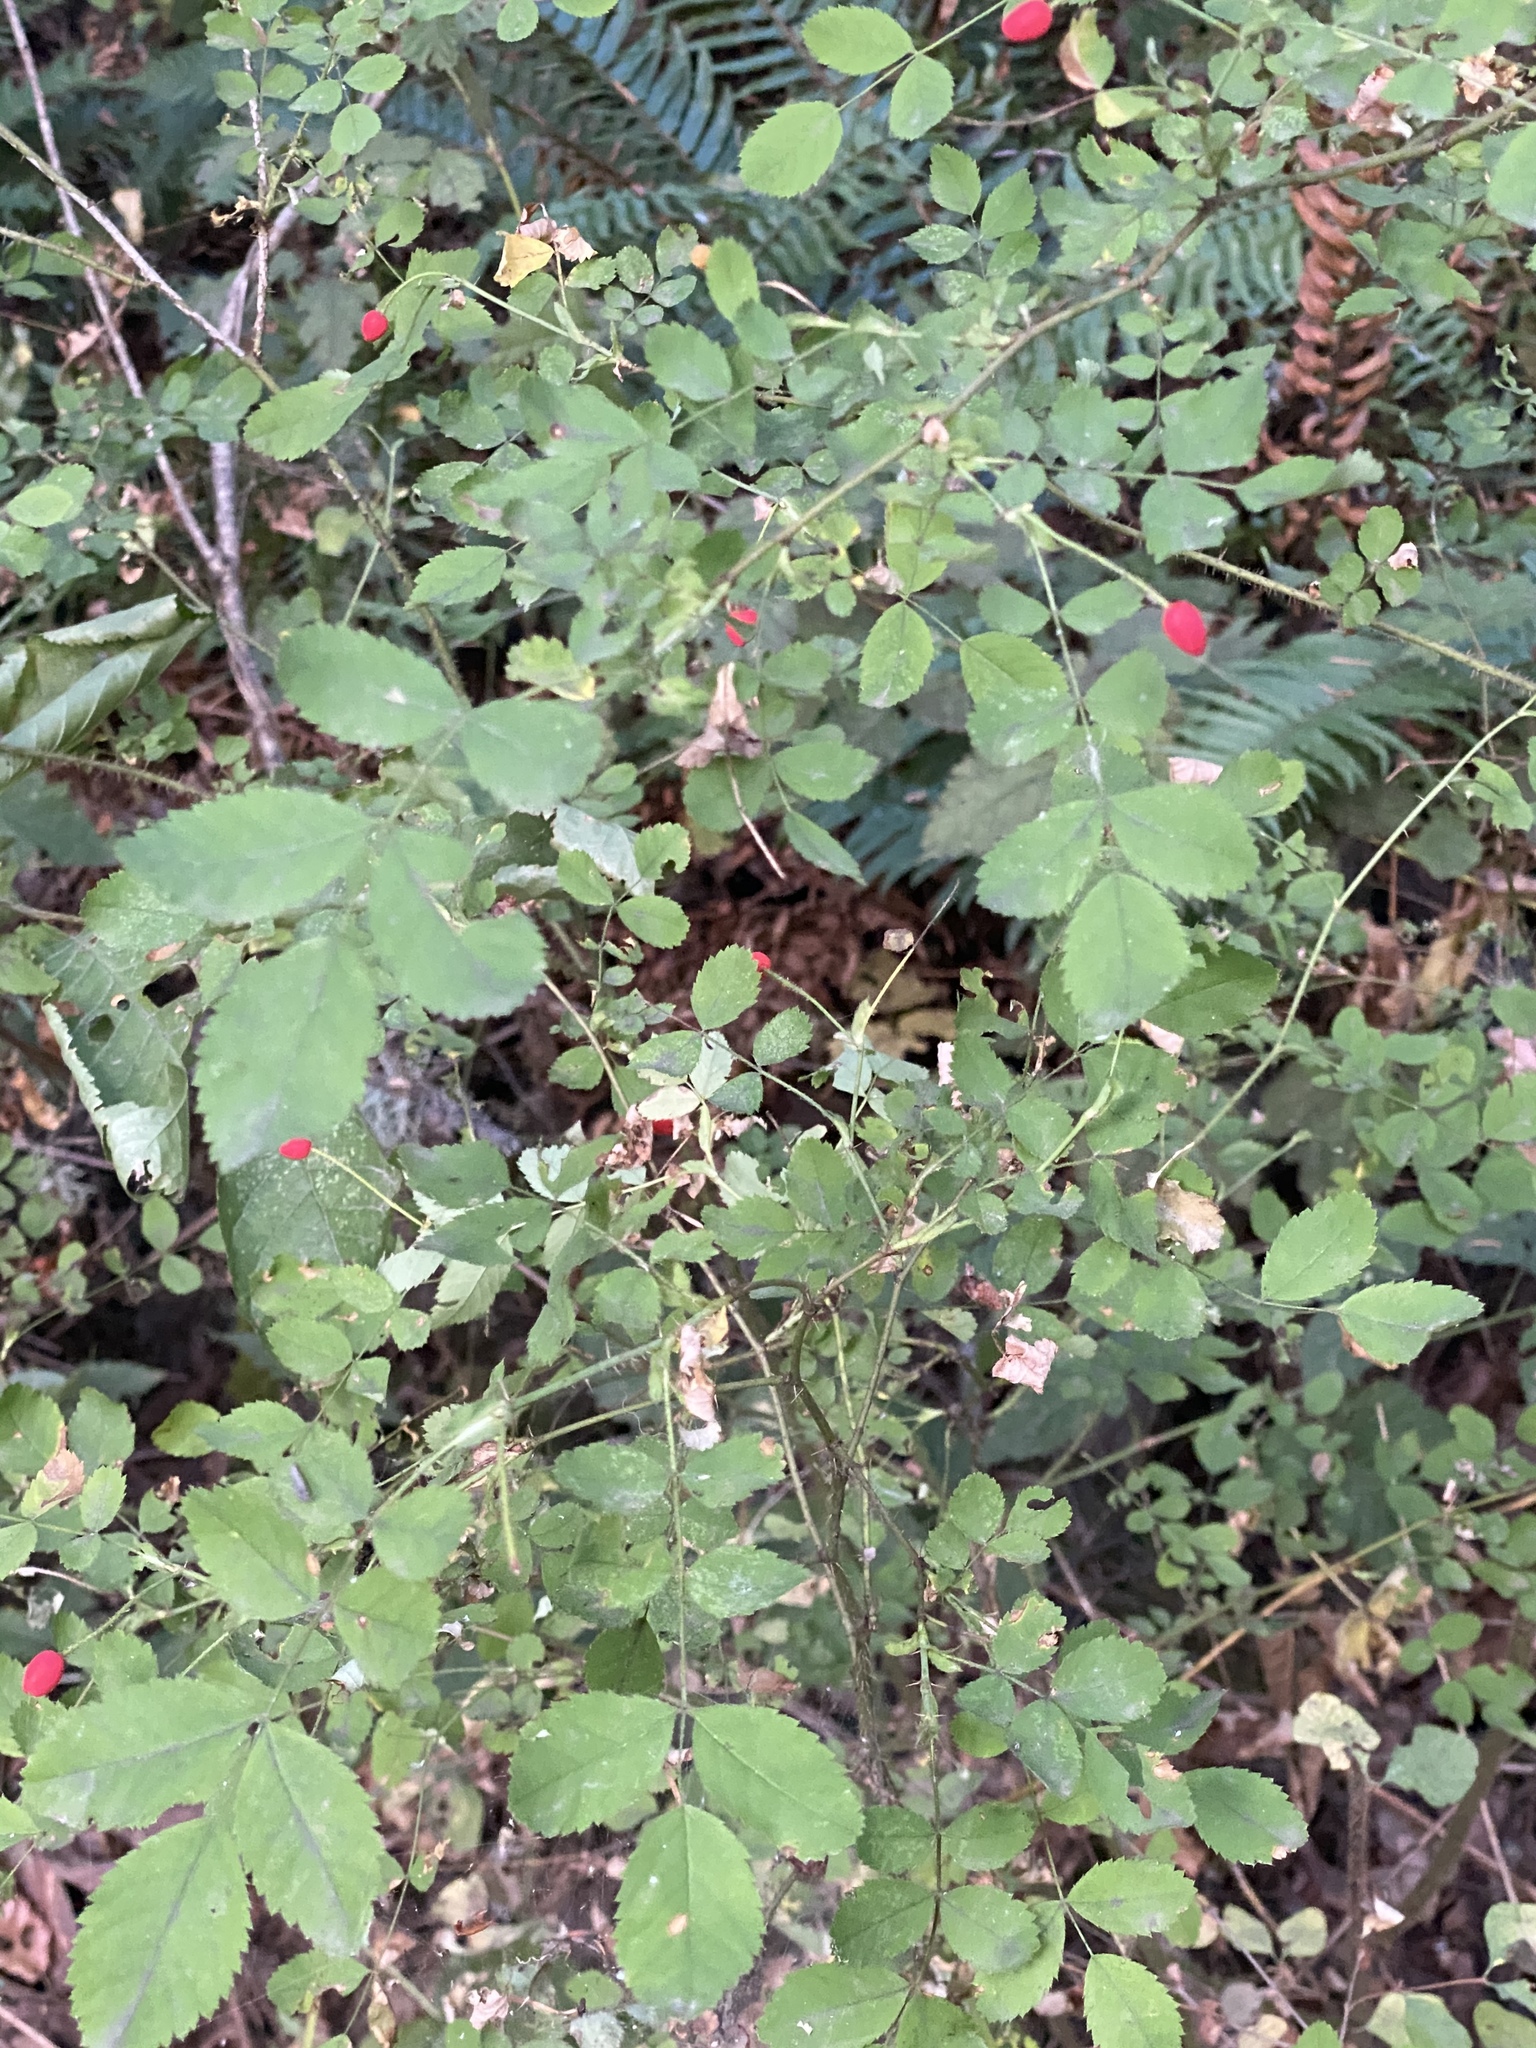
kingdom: Plantae
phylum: Tracheophyta
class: Magnoliopsida
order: Rosales
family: Rosaceae
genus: Rosa
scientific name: Rosa gymnocarpa
